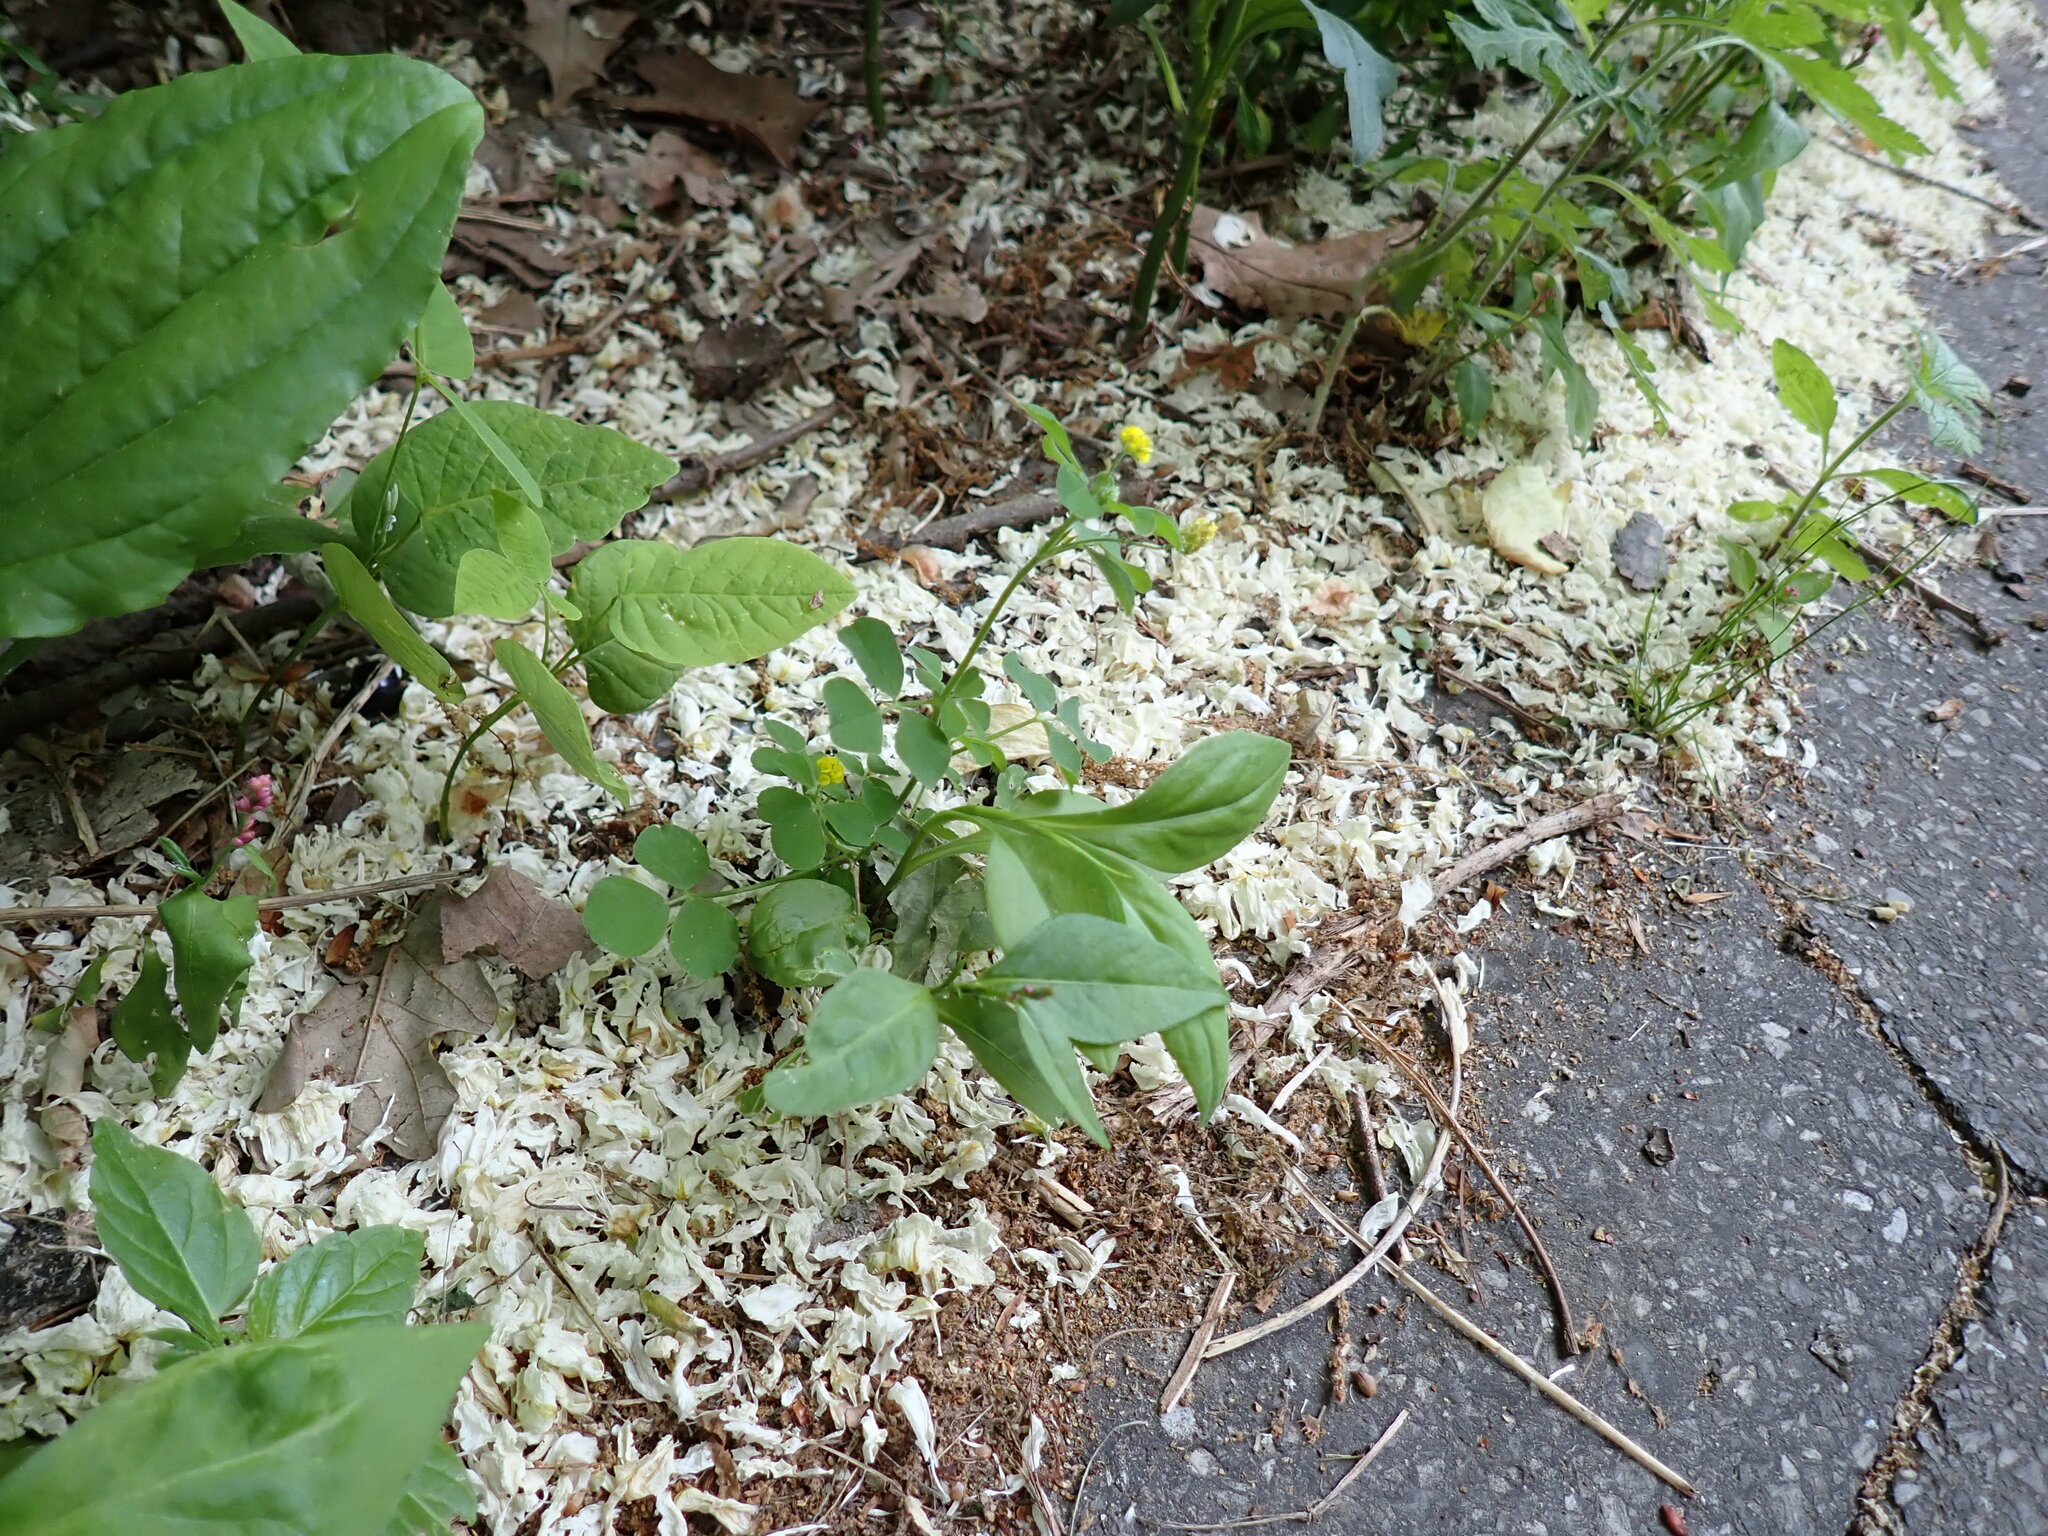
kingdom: Plantae
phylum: Tracheophyta
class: Magnoliopsida
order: Fabales
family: Fabaceae
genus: Medicago
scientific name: Medicago lupulina
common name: Black medick
